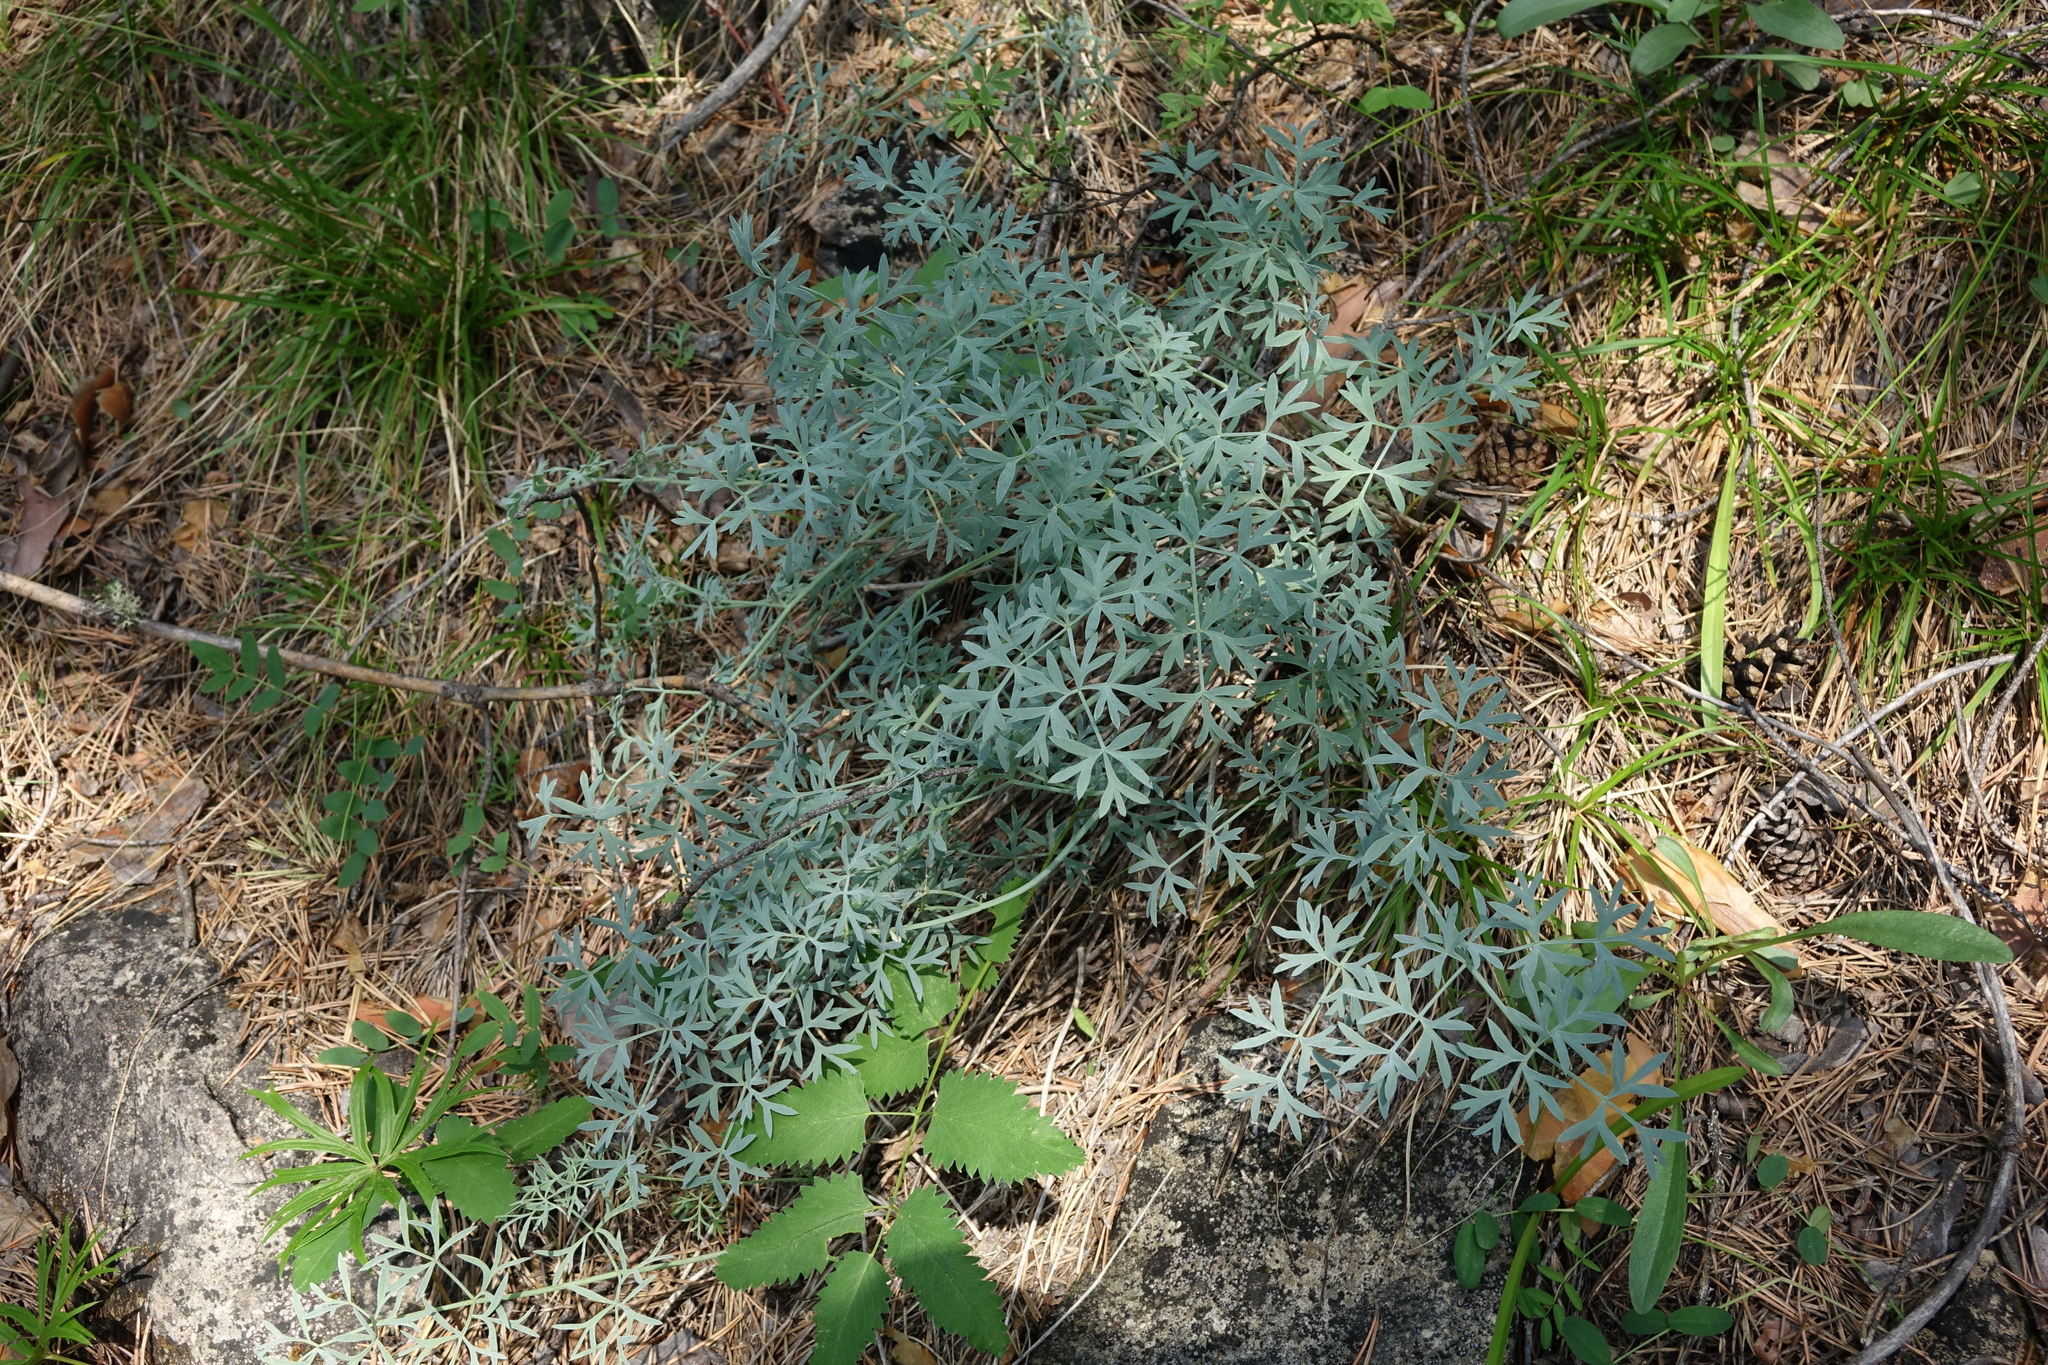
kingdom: Plantae
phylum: Tracheophyta
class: Magnoliopsida
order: Apiales
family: Apiaceae
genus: Phlojodicarpus
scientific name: Phlojodicarpus sibiricus
